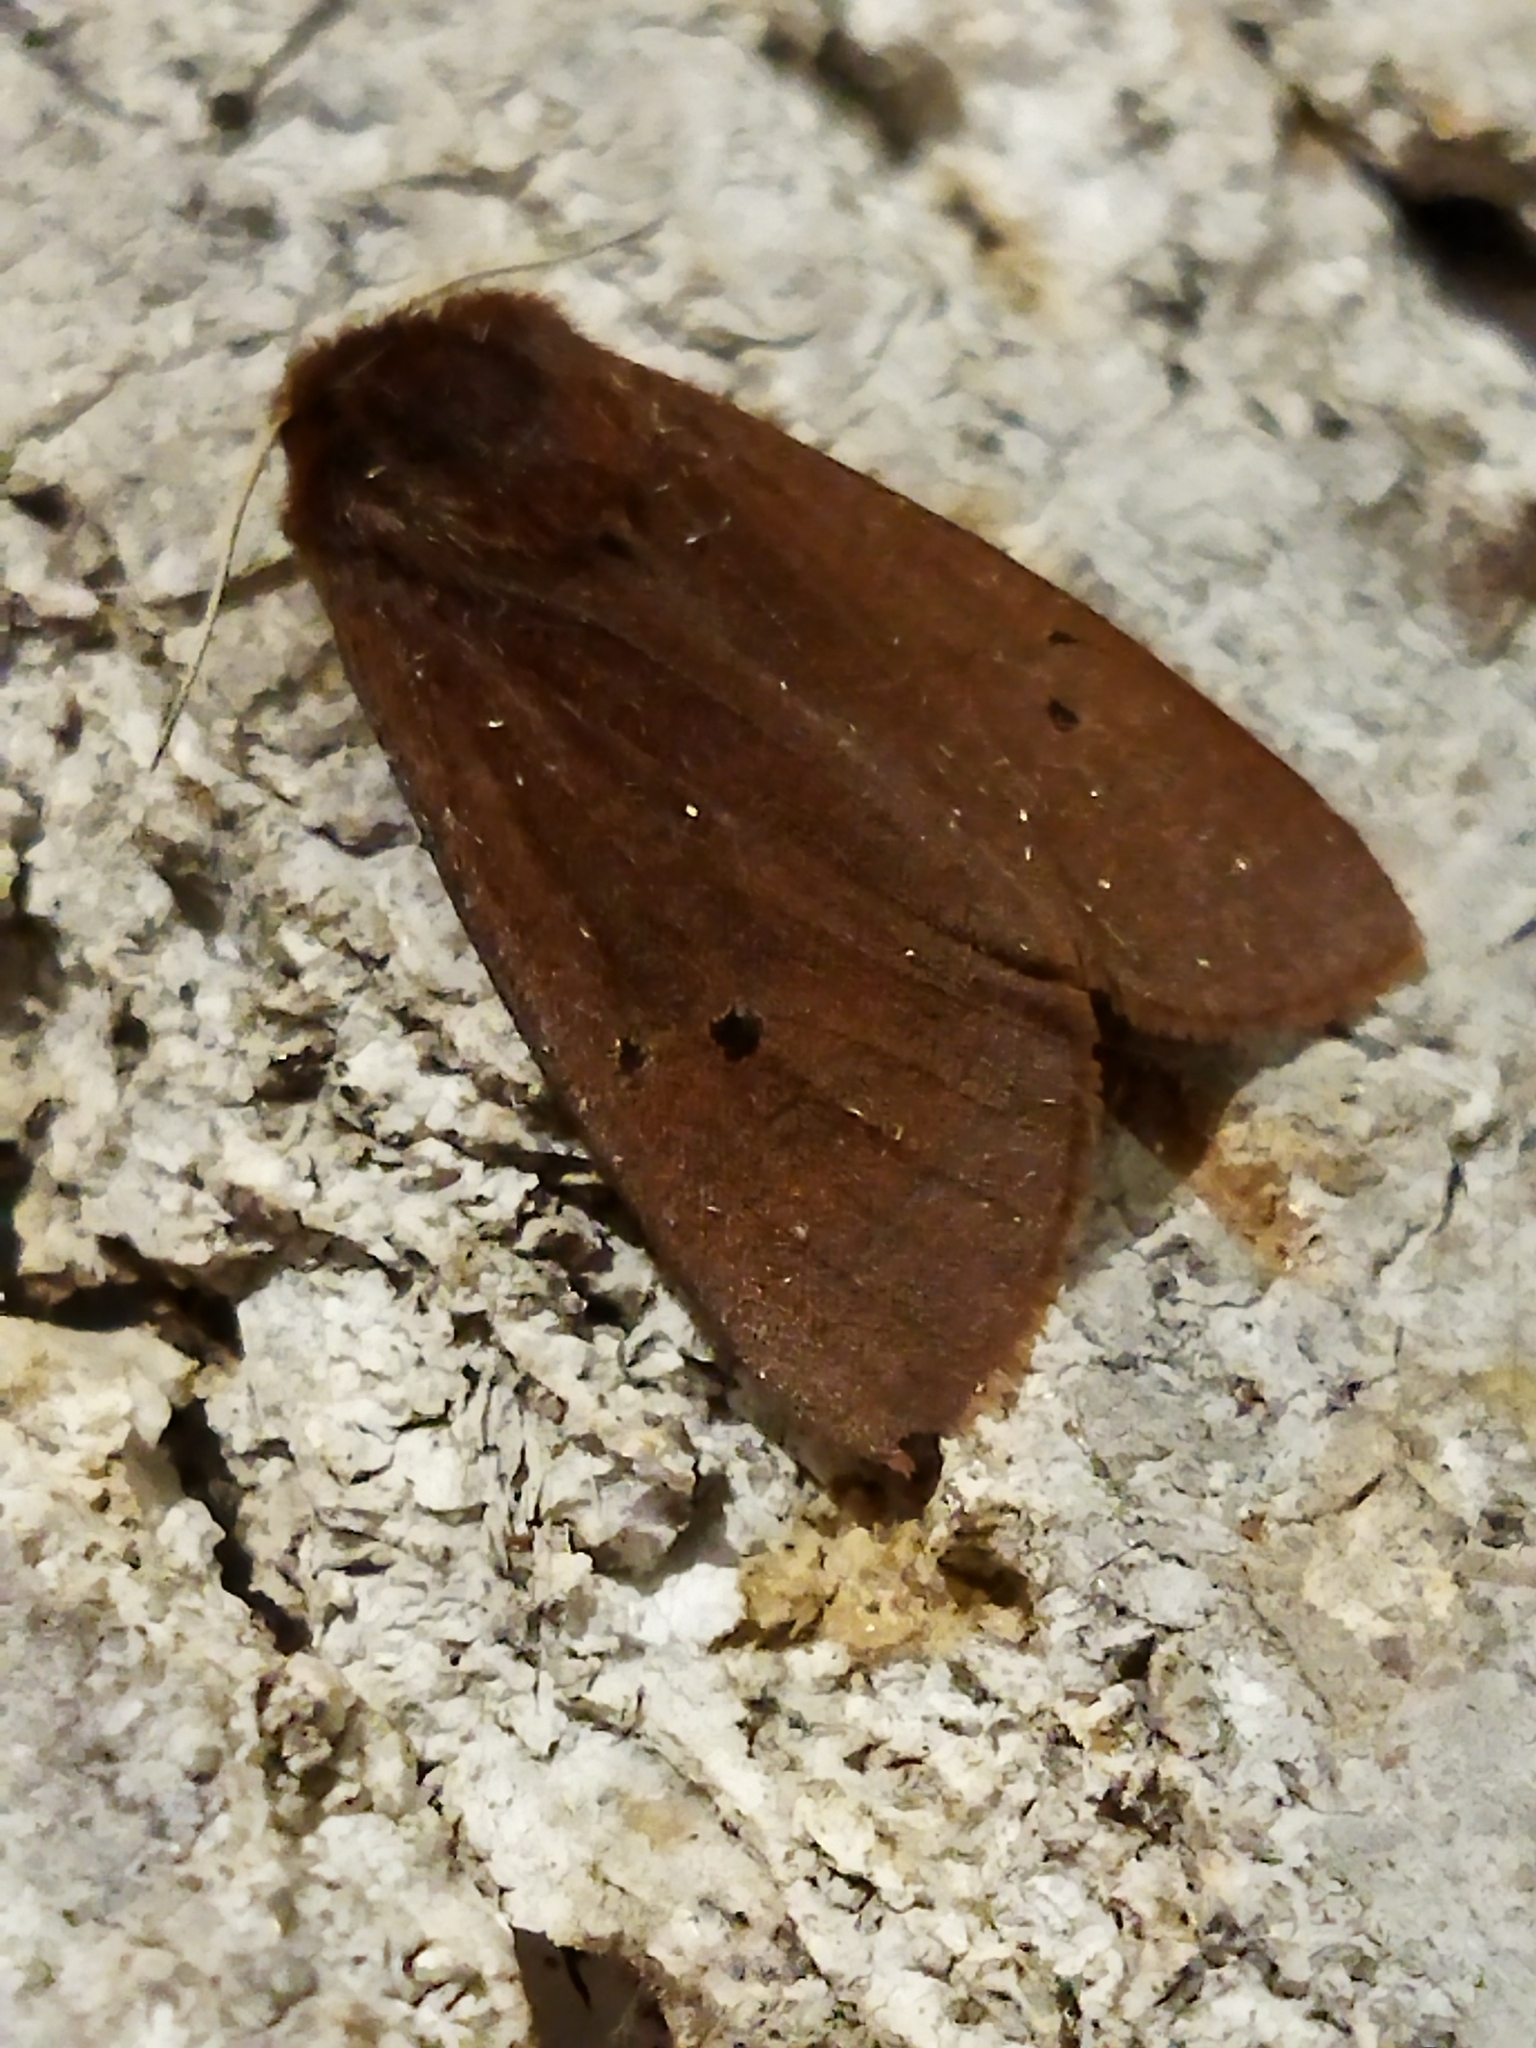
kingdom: Animalia
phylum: Arthropoda
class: Insecta
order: Lepidoptera
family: Erebidae
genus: Phragmatobia
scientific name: Phragmatobia fuliginosa
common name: Ruby tiger
